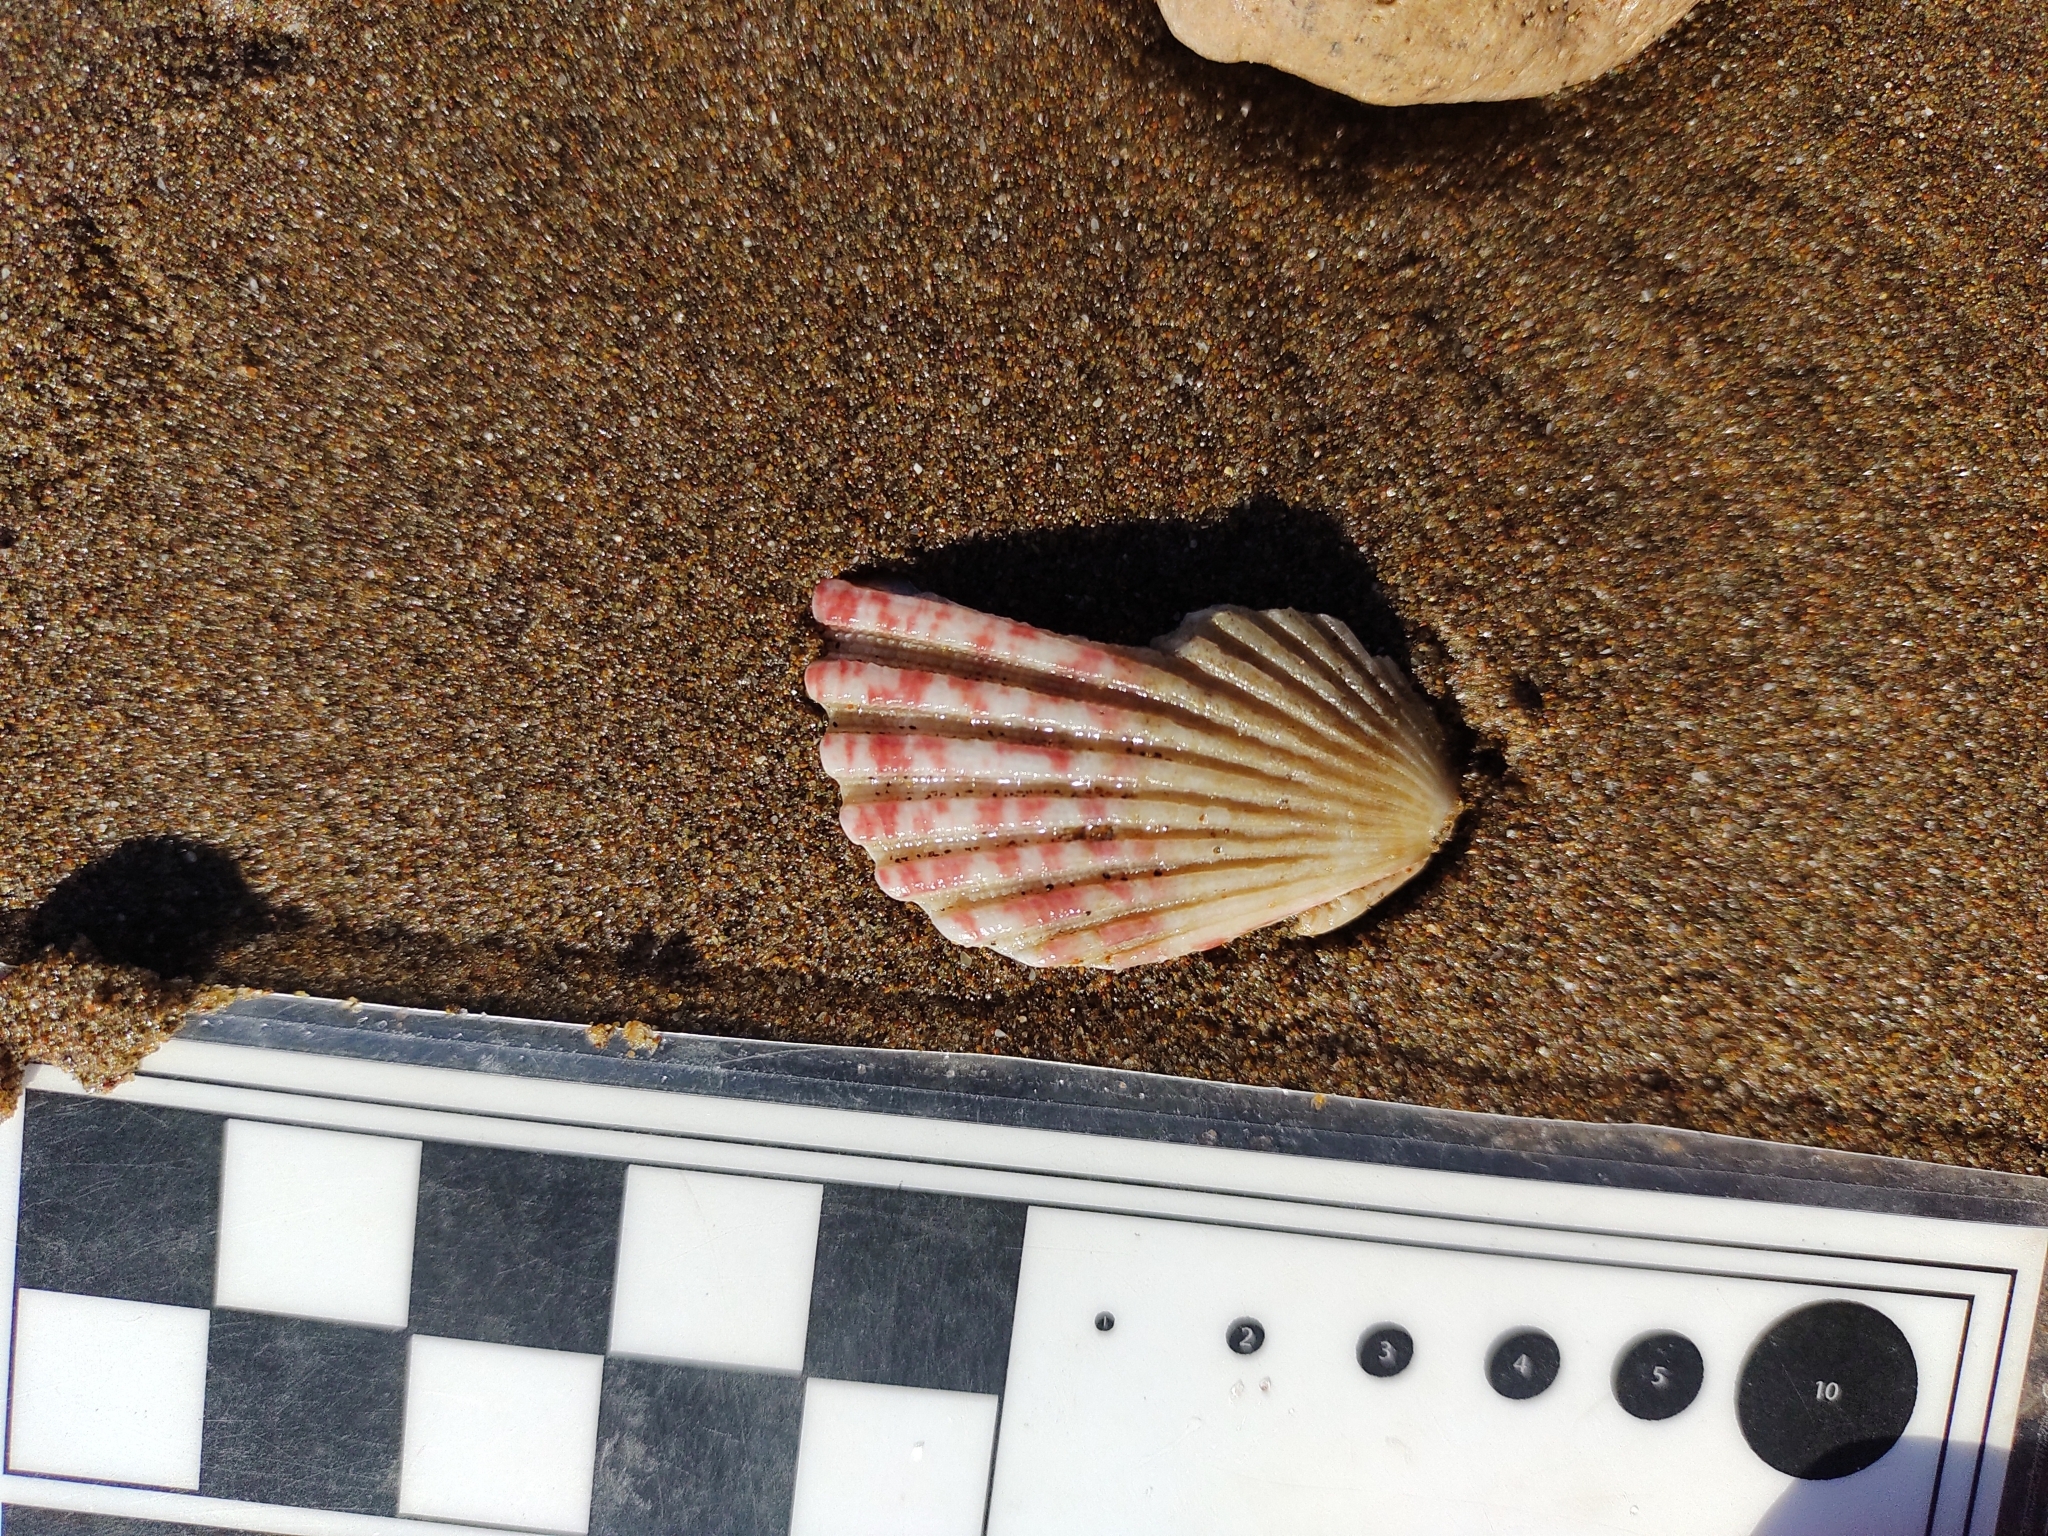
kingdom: Animalia
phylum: Mollusca
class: Bivalvia
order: Pectinida
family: Pectinidae
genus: Aequipecten
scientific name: Aequipecten tehuelchus
